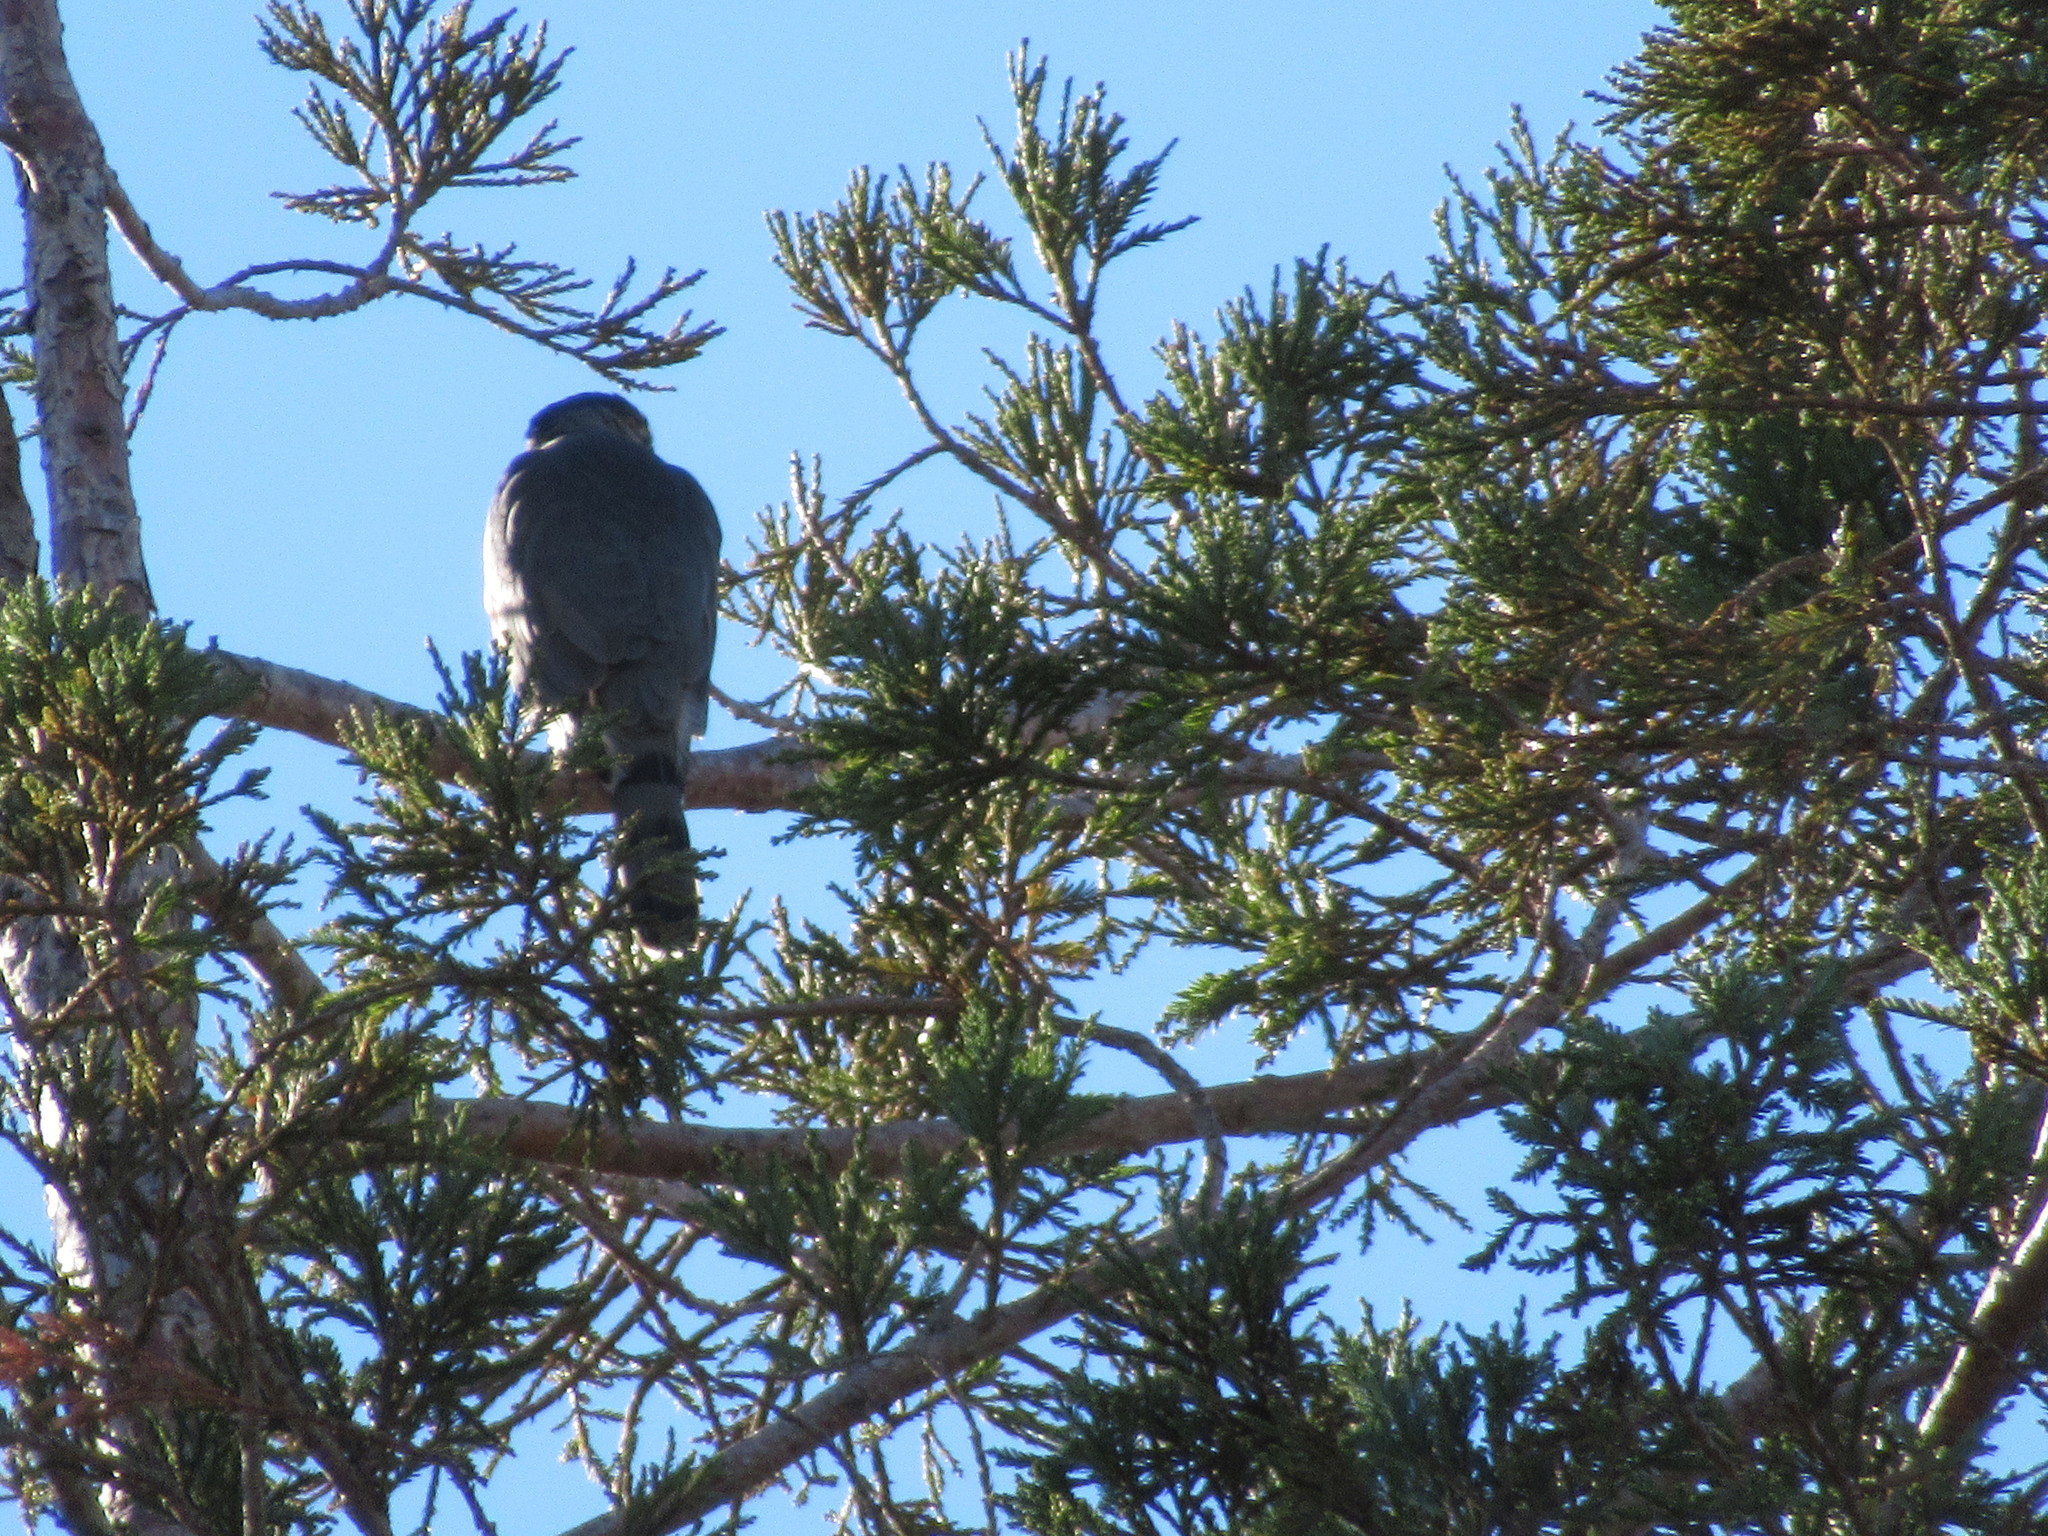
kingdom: Animalia
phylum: Chordata
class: Aves
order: Accipitriformes
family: Accipitridae
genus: Accipiter
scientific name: Accipiter cooperii
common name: Cooper's hawk
